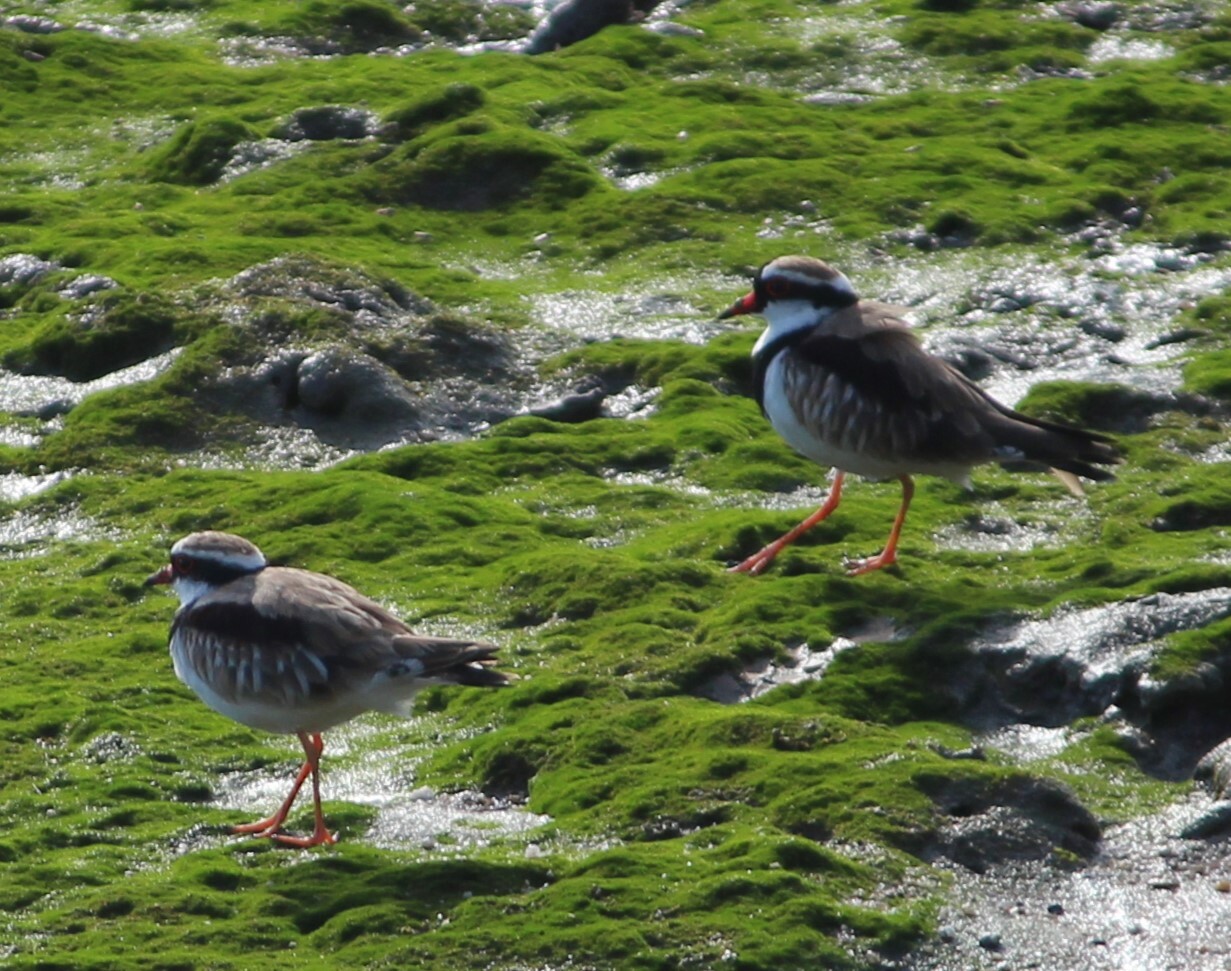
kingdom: Animalia
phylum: Chordata
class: Aves
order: Charadriiformes
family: Charadriidae
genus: Elseyornis
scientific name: Elseyornis melanops
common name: Black-fronted dotterel
